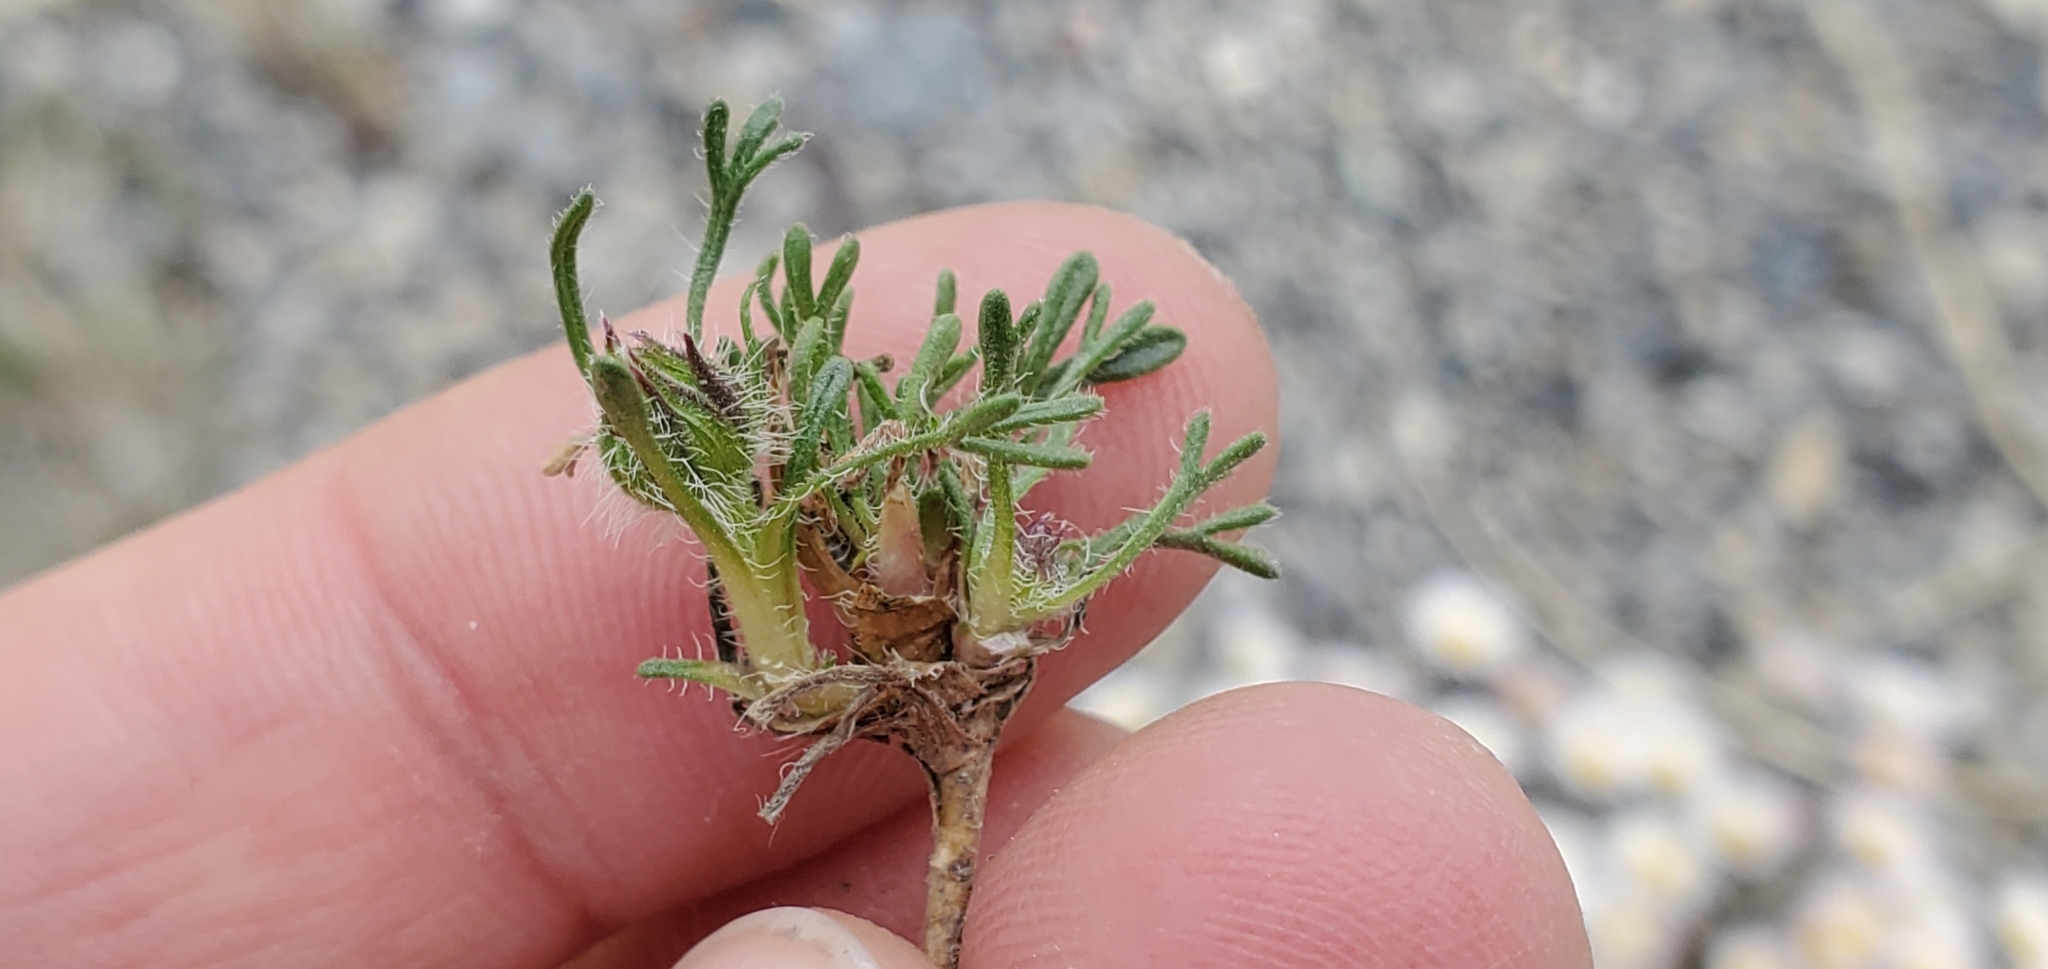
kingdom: Plantae
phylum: Tracheophyta
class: Magnoliopsida
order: Asterales
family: Asteraceae
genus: Erigeron
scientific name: Erigeron compositus
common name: Dwarf mountain fleabane
